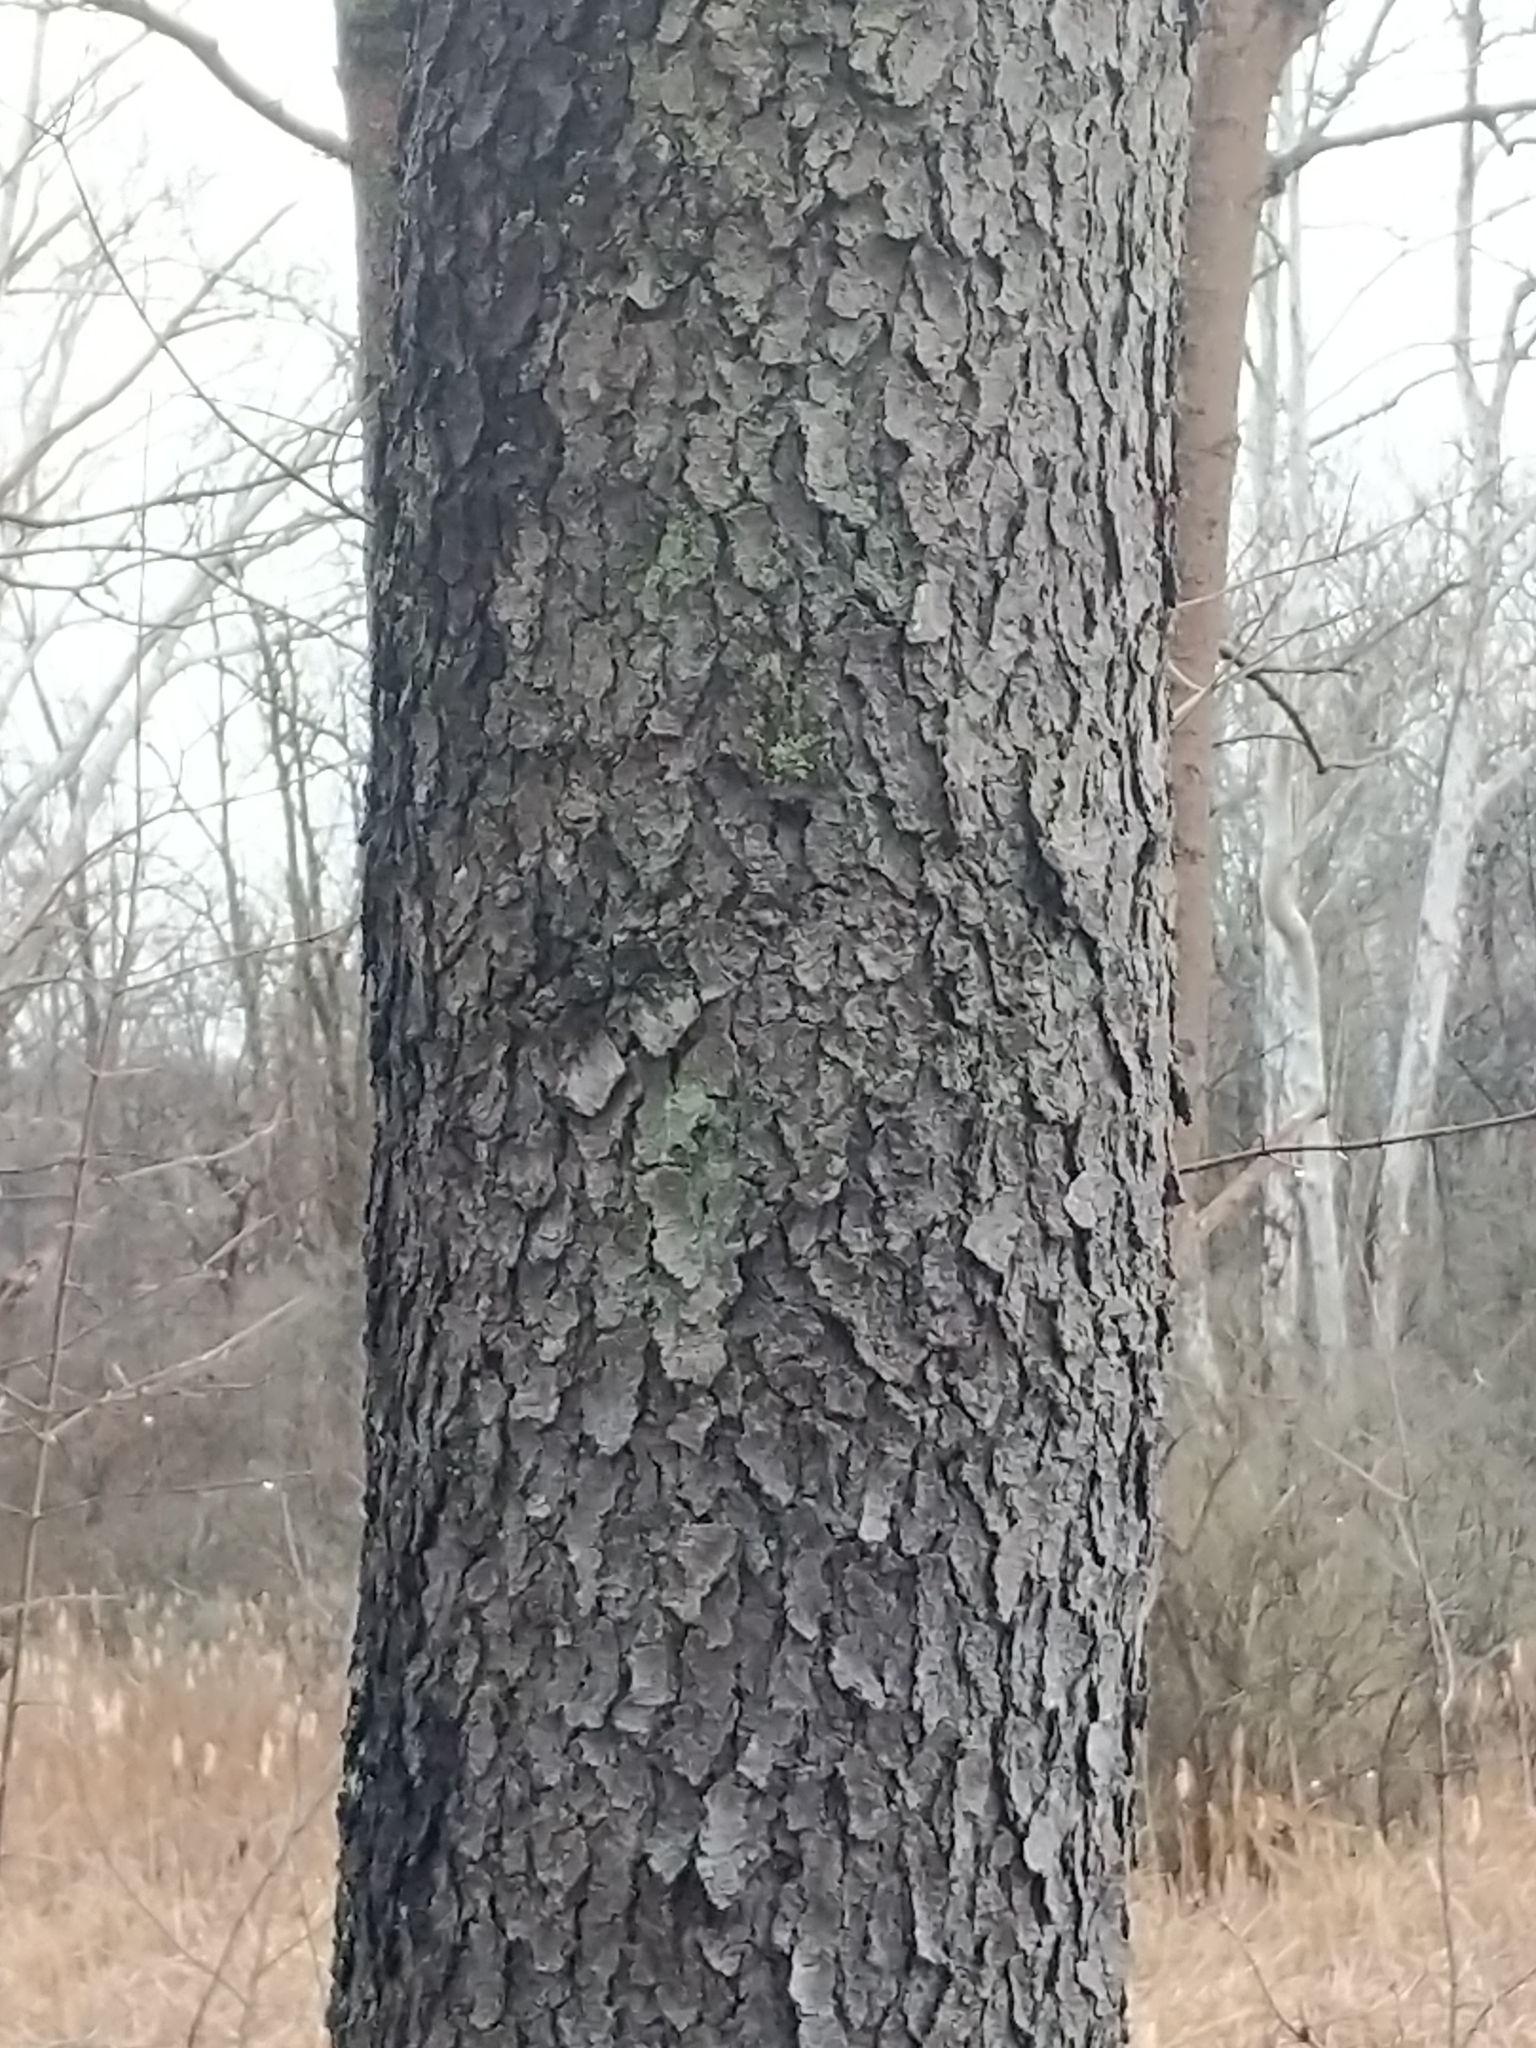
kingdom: Plantae
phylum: Tracheophyta
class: Magnoliopsida
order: Rosales
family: Rosaceae
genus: Prunus
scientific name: Prunus serotina
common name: Black cherry
